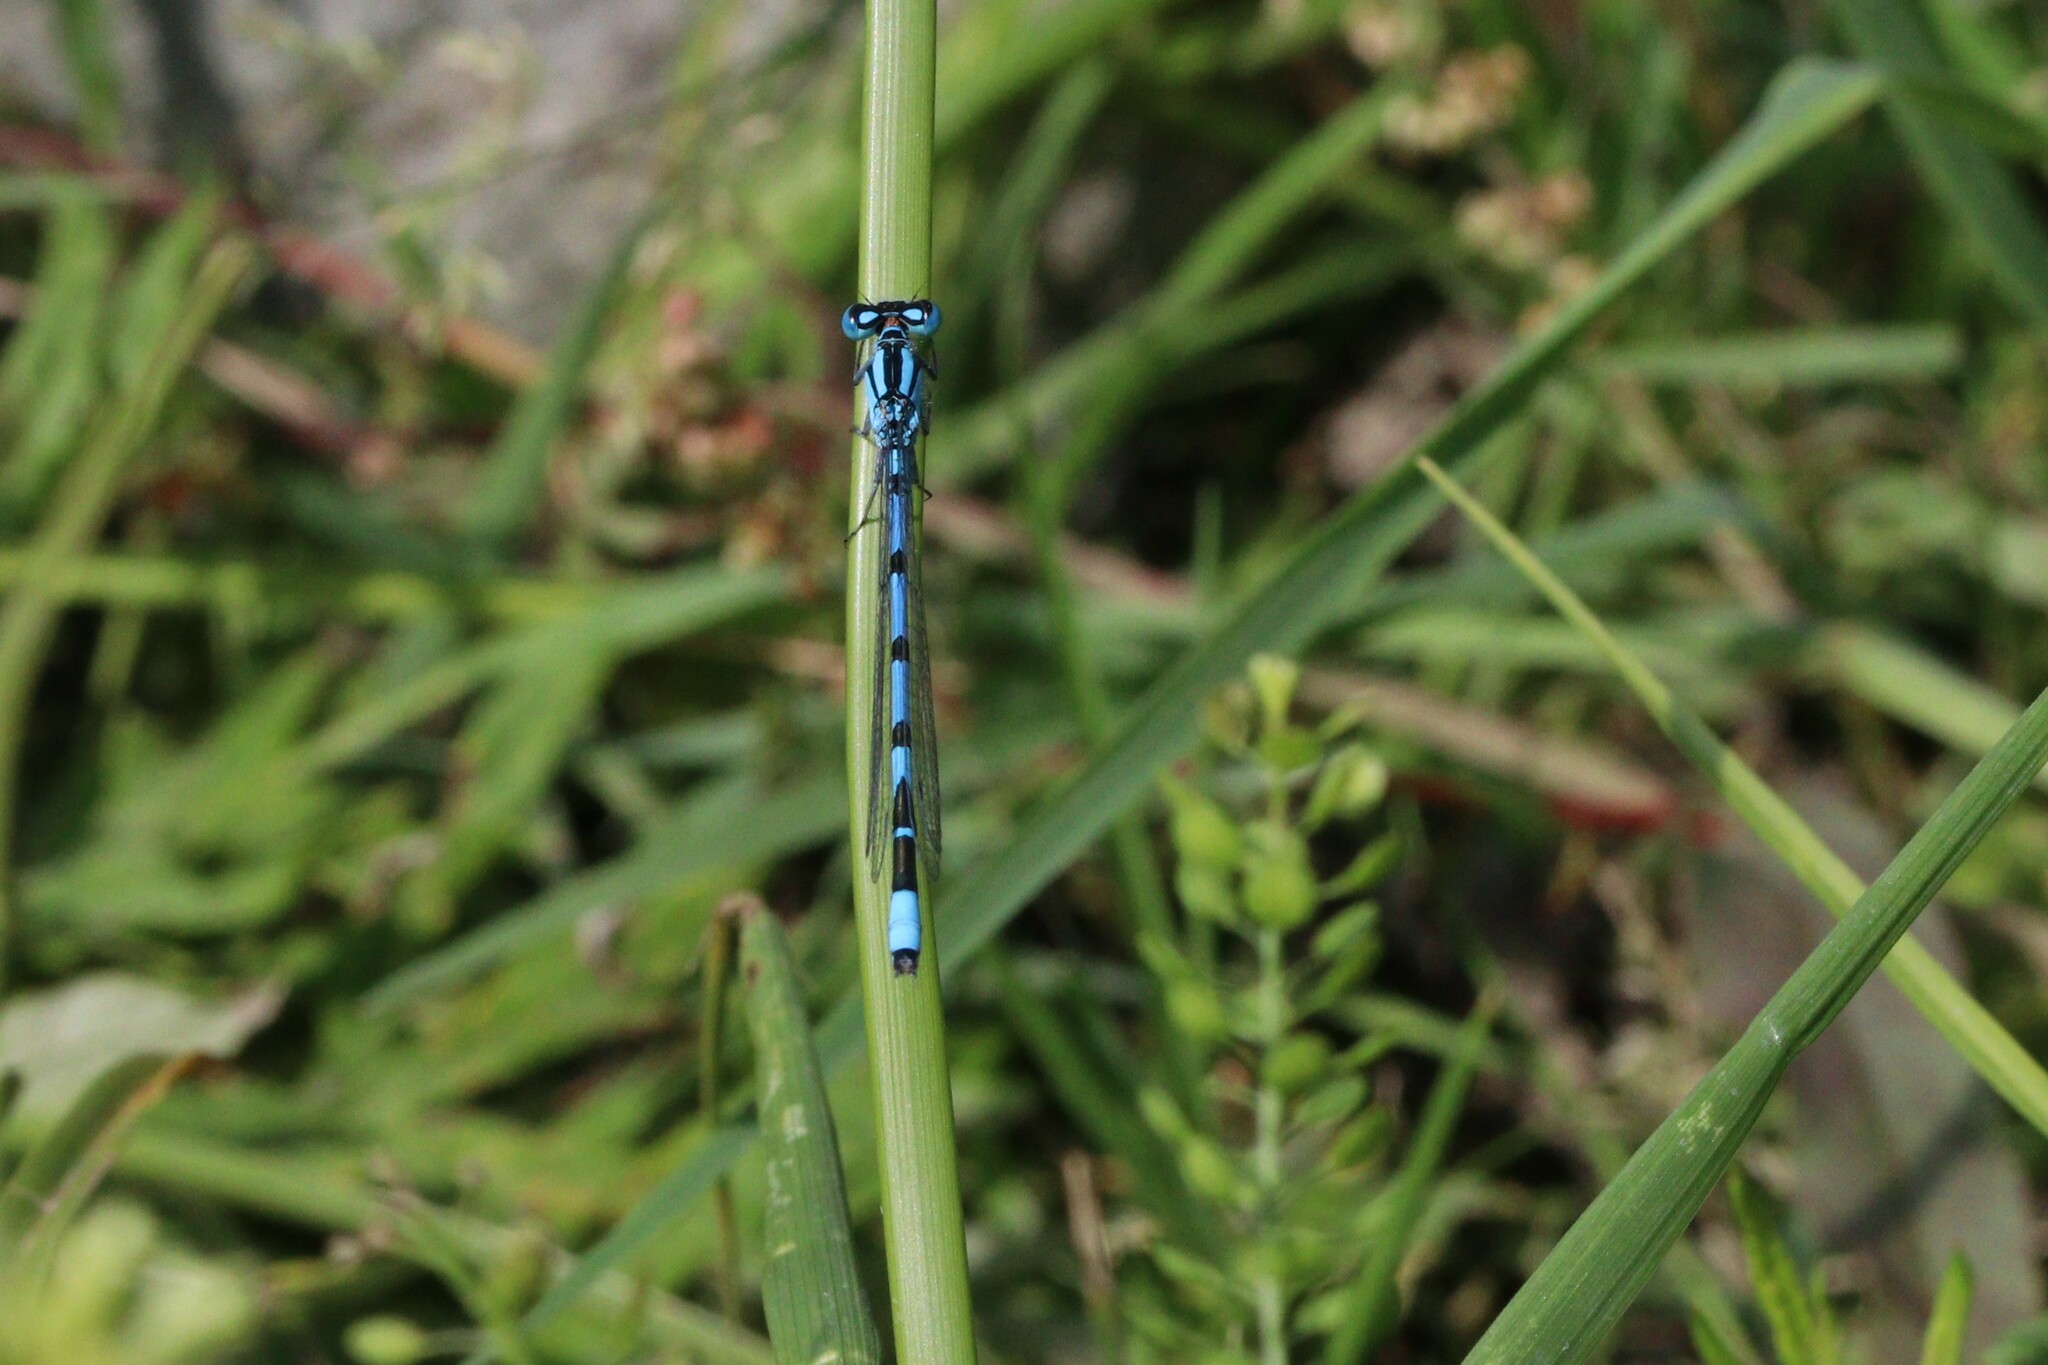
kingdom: Animalia
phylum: Arthropoda
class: Insecta
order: Odonata
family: Coenagrionidae
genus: Enallagma
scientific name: Enallagma cyathigerum
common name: Common blue damselfly
